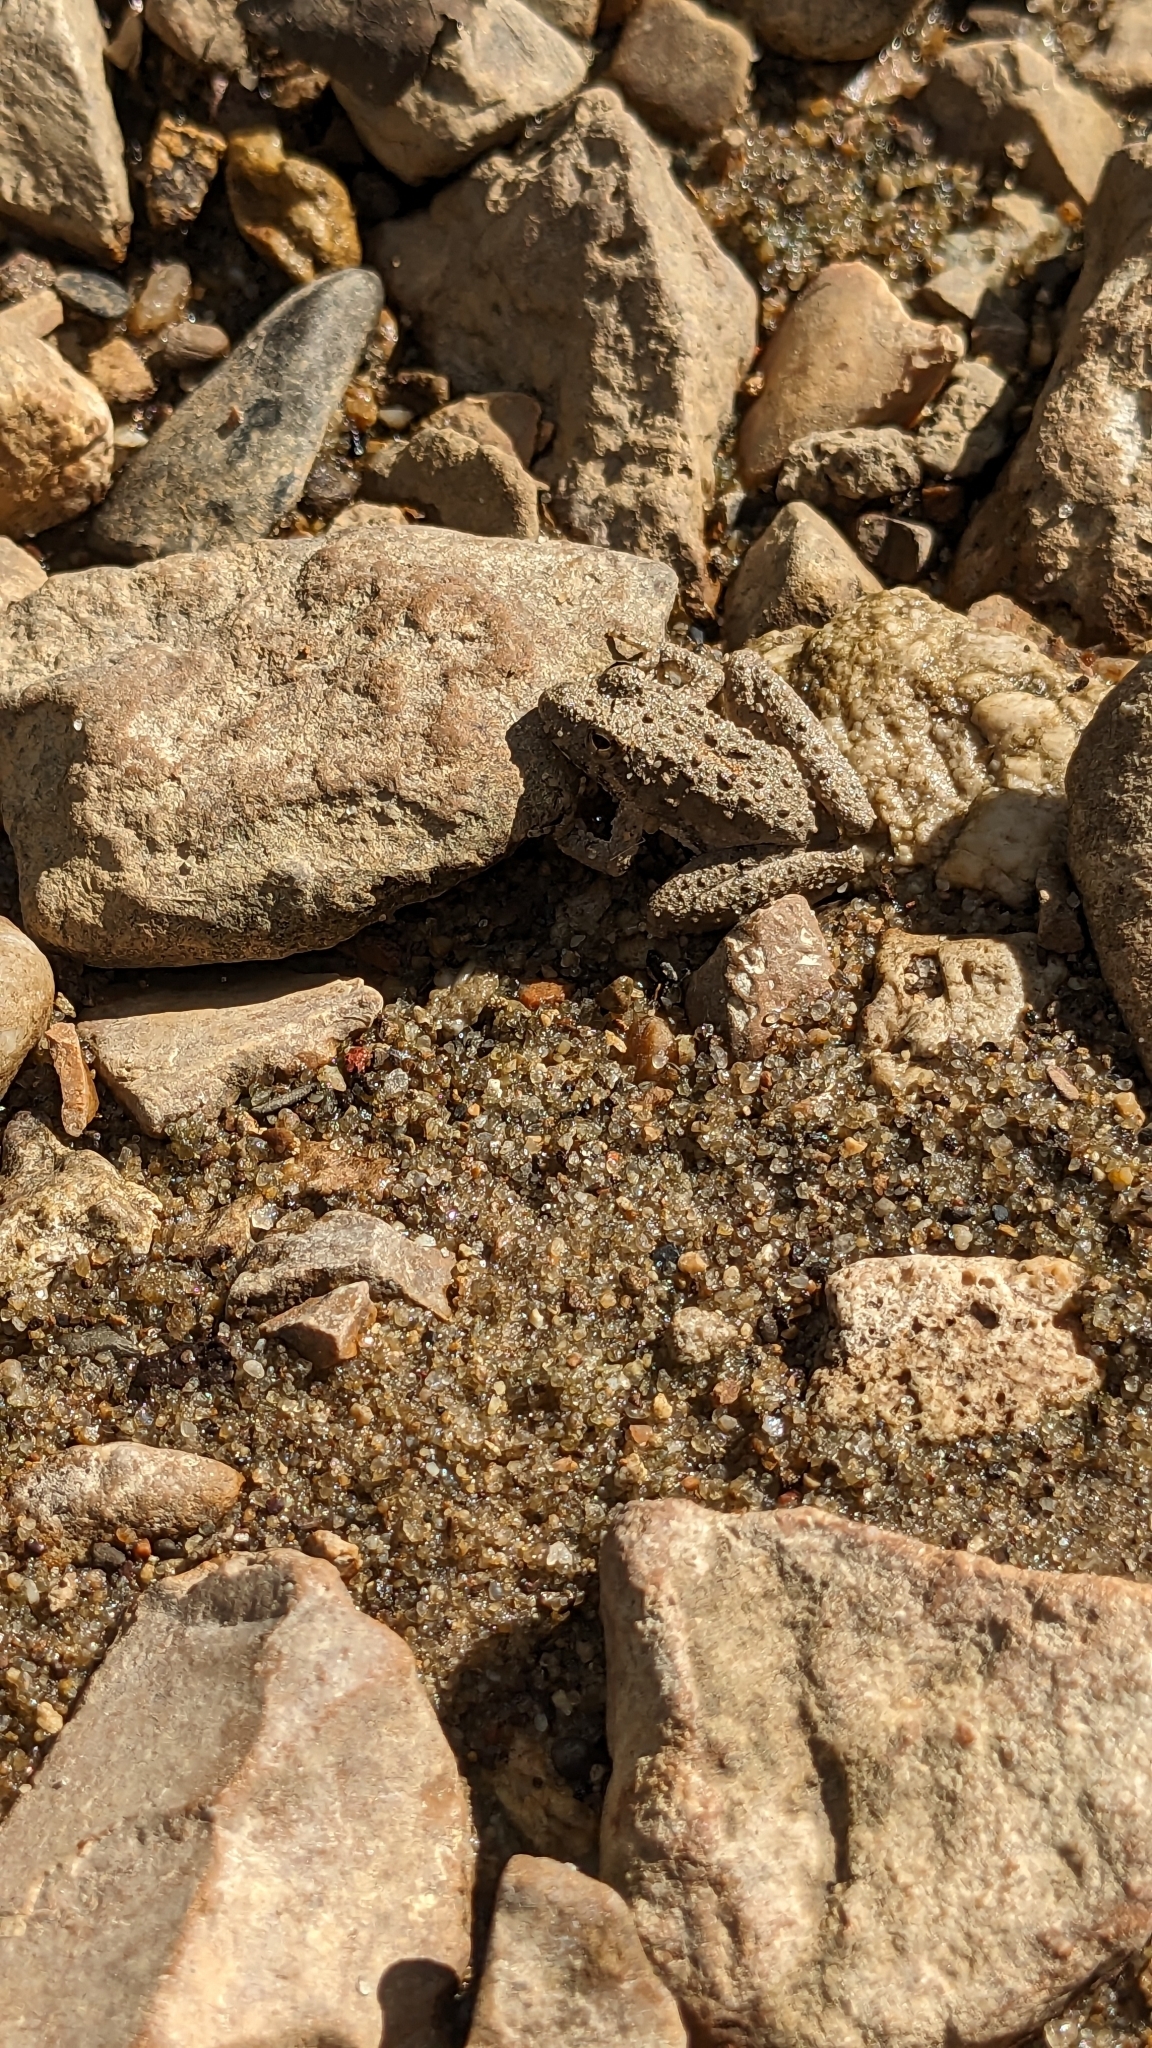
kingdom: Animalia
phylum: Chordata
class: Amphibia
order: Anura
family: Hylidae
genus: Acris
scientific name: Acris blanchardi
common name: Blanchard's cricket frog
